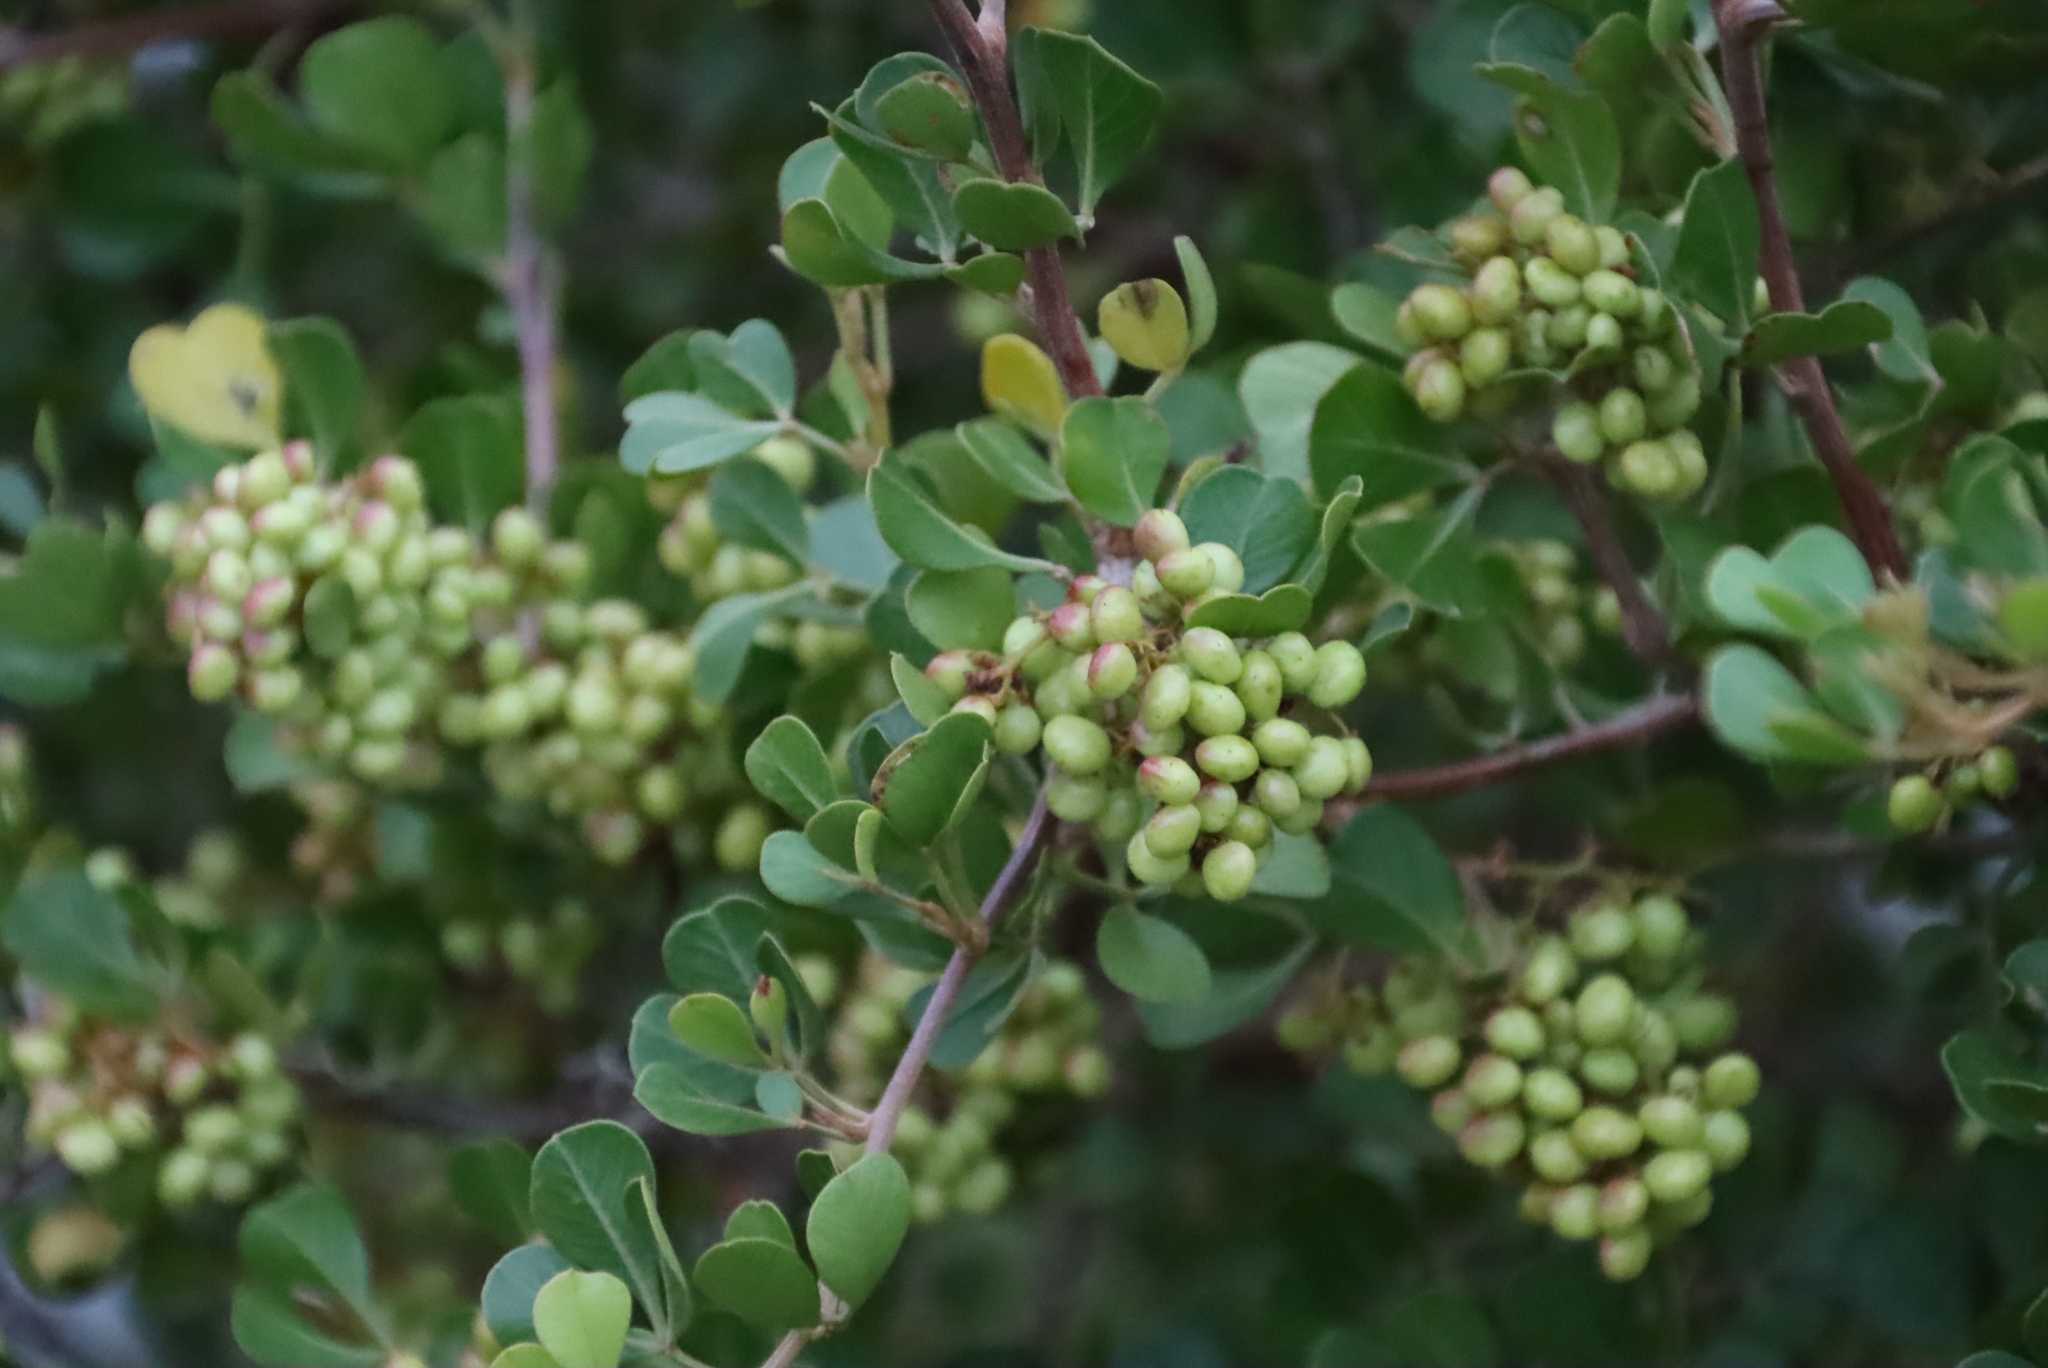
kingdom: Plantae
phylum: Tracheophyta
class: Magnoliopsida
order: Sapindales
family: Anacardiaceae
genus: Searsia
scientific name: Searsia glauca
